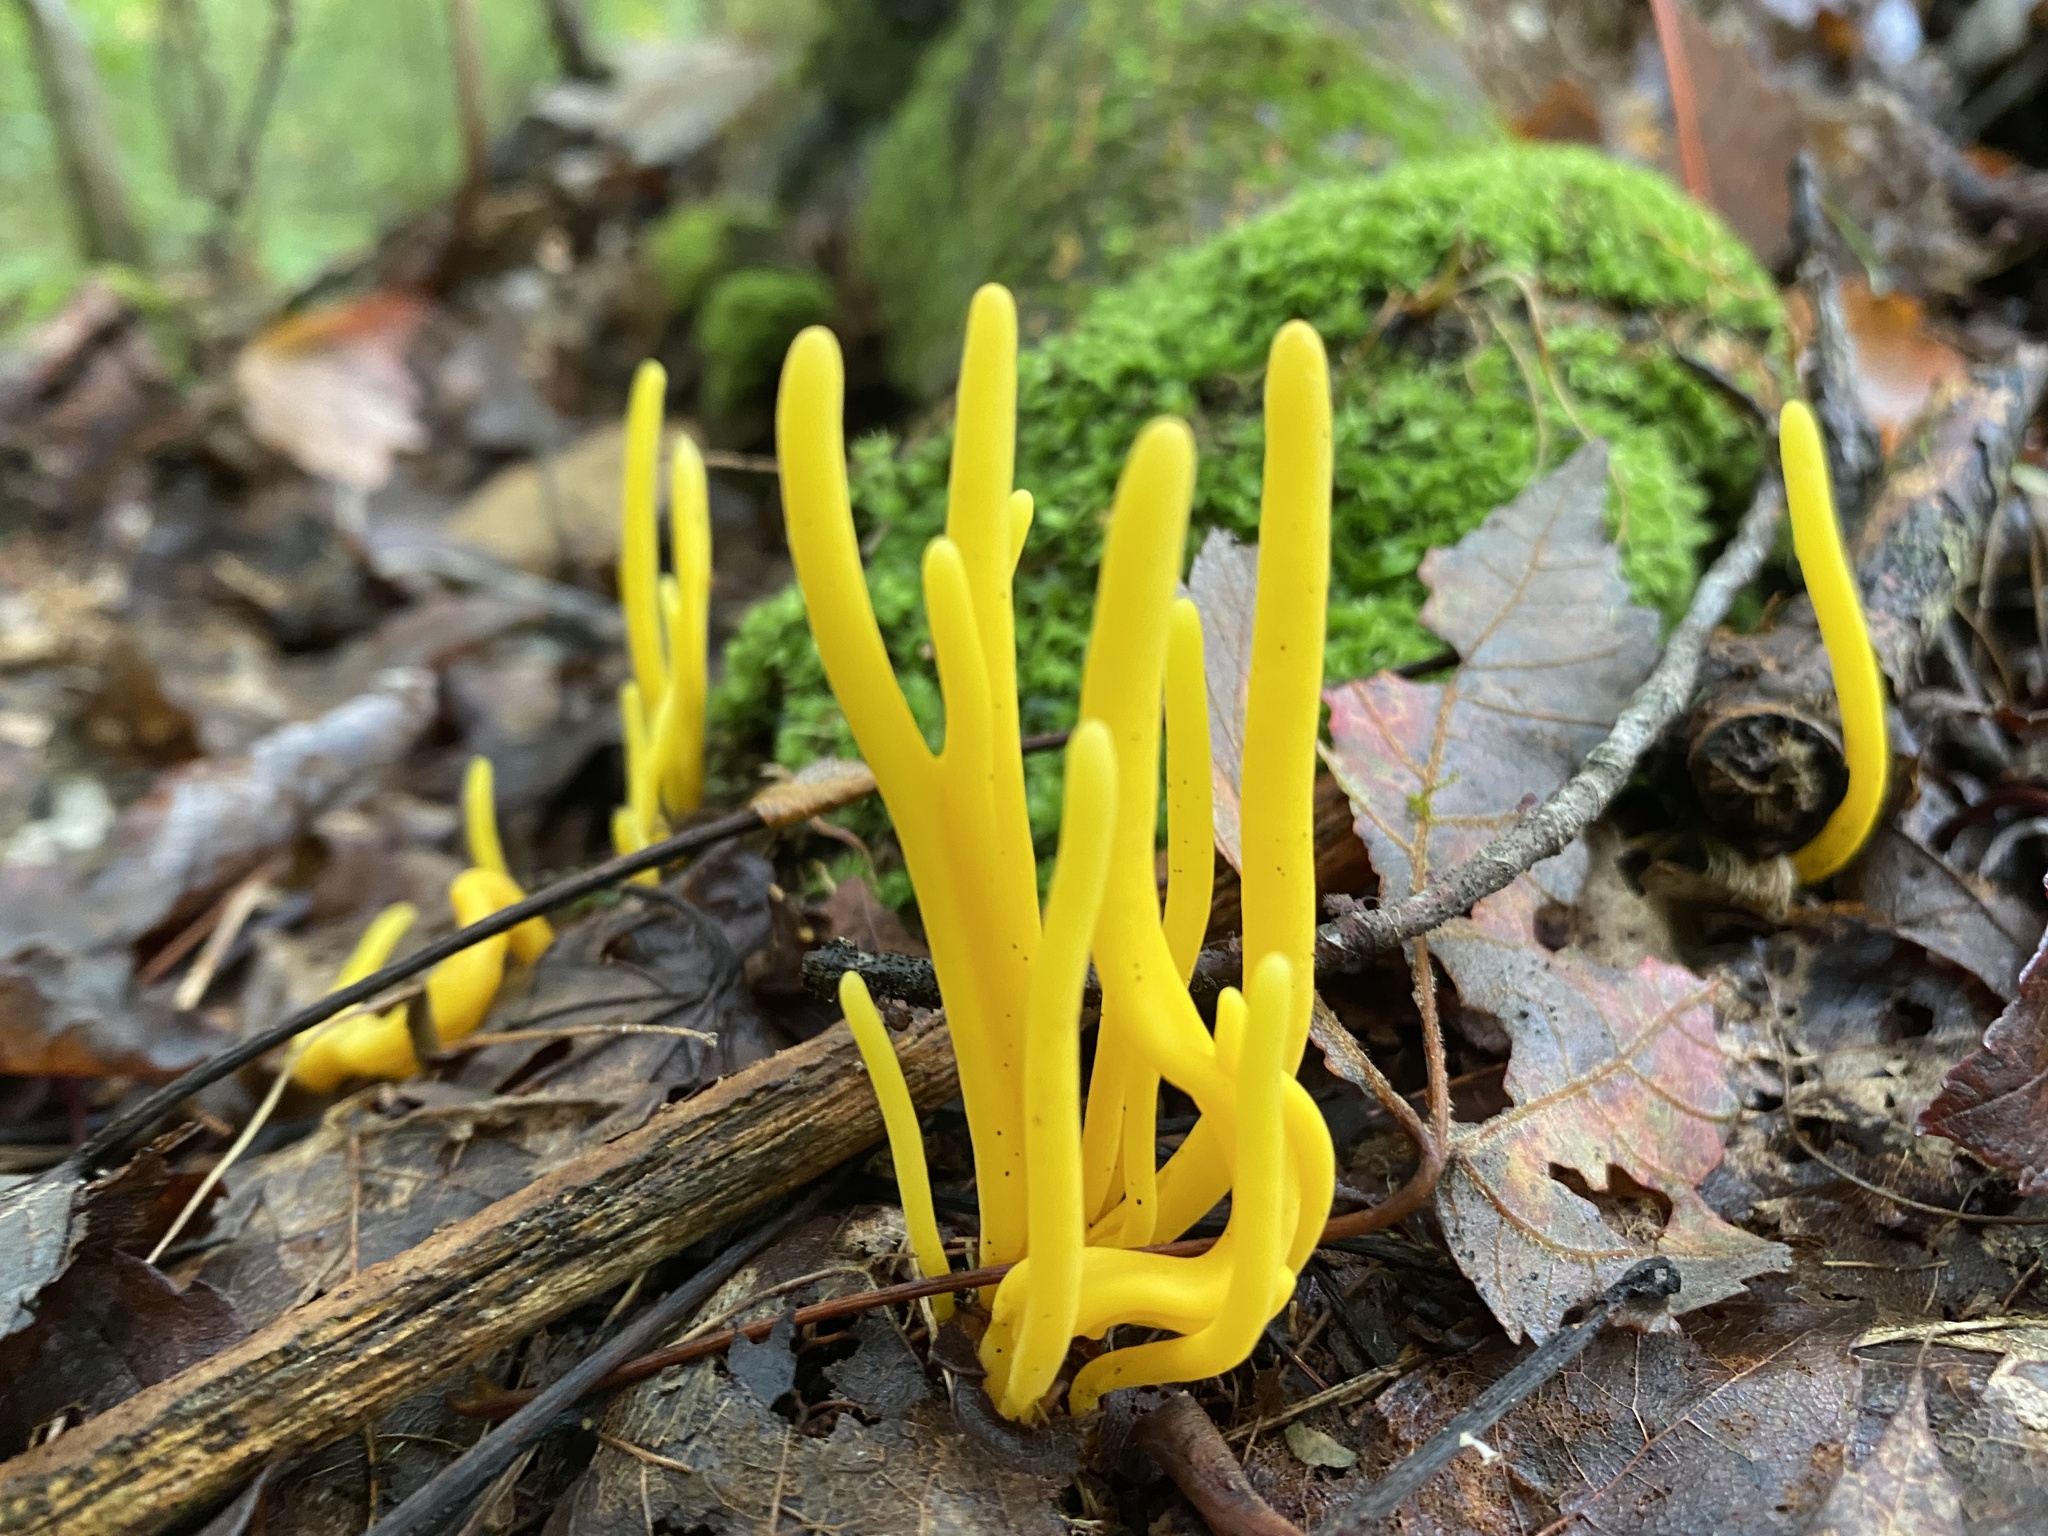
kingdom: Fungi
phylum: Basidiomycota
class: Agaricomycetes
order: Agaricales
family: Clavariaceae
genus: Clavulinopsis
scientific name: Clavulinopsis fusiformis
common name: Golden spindles
